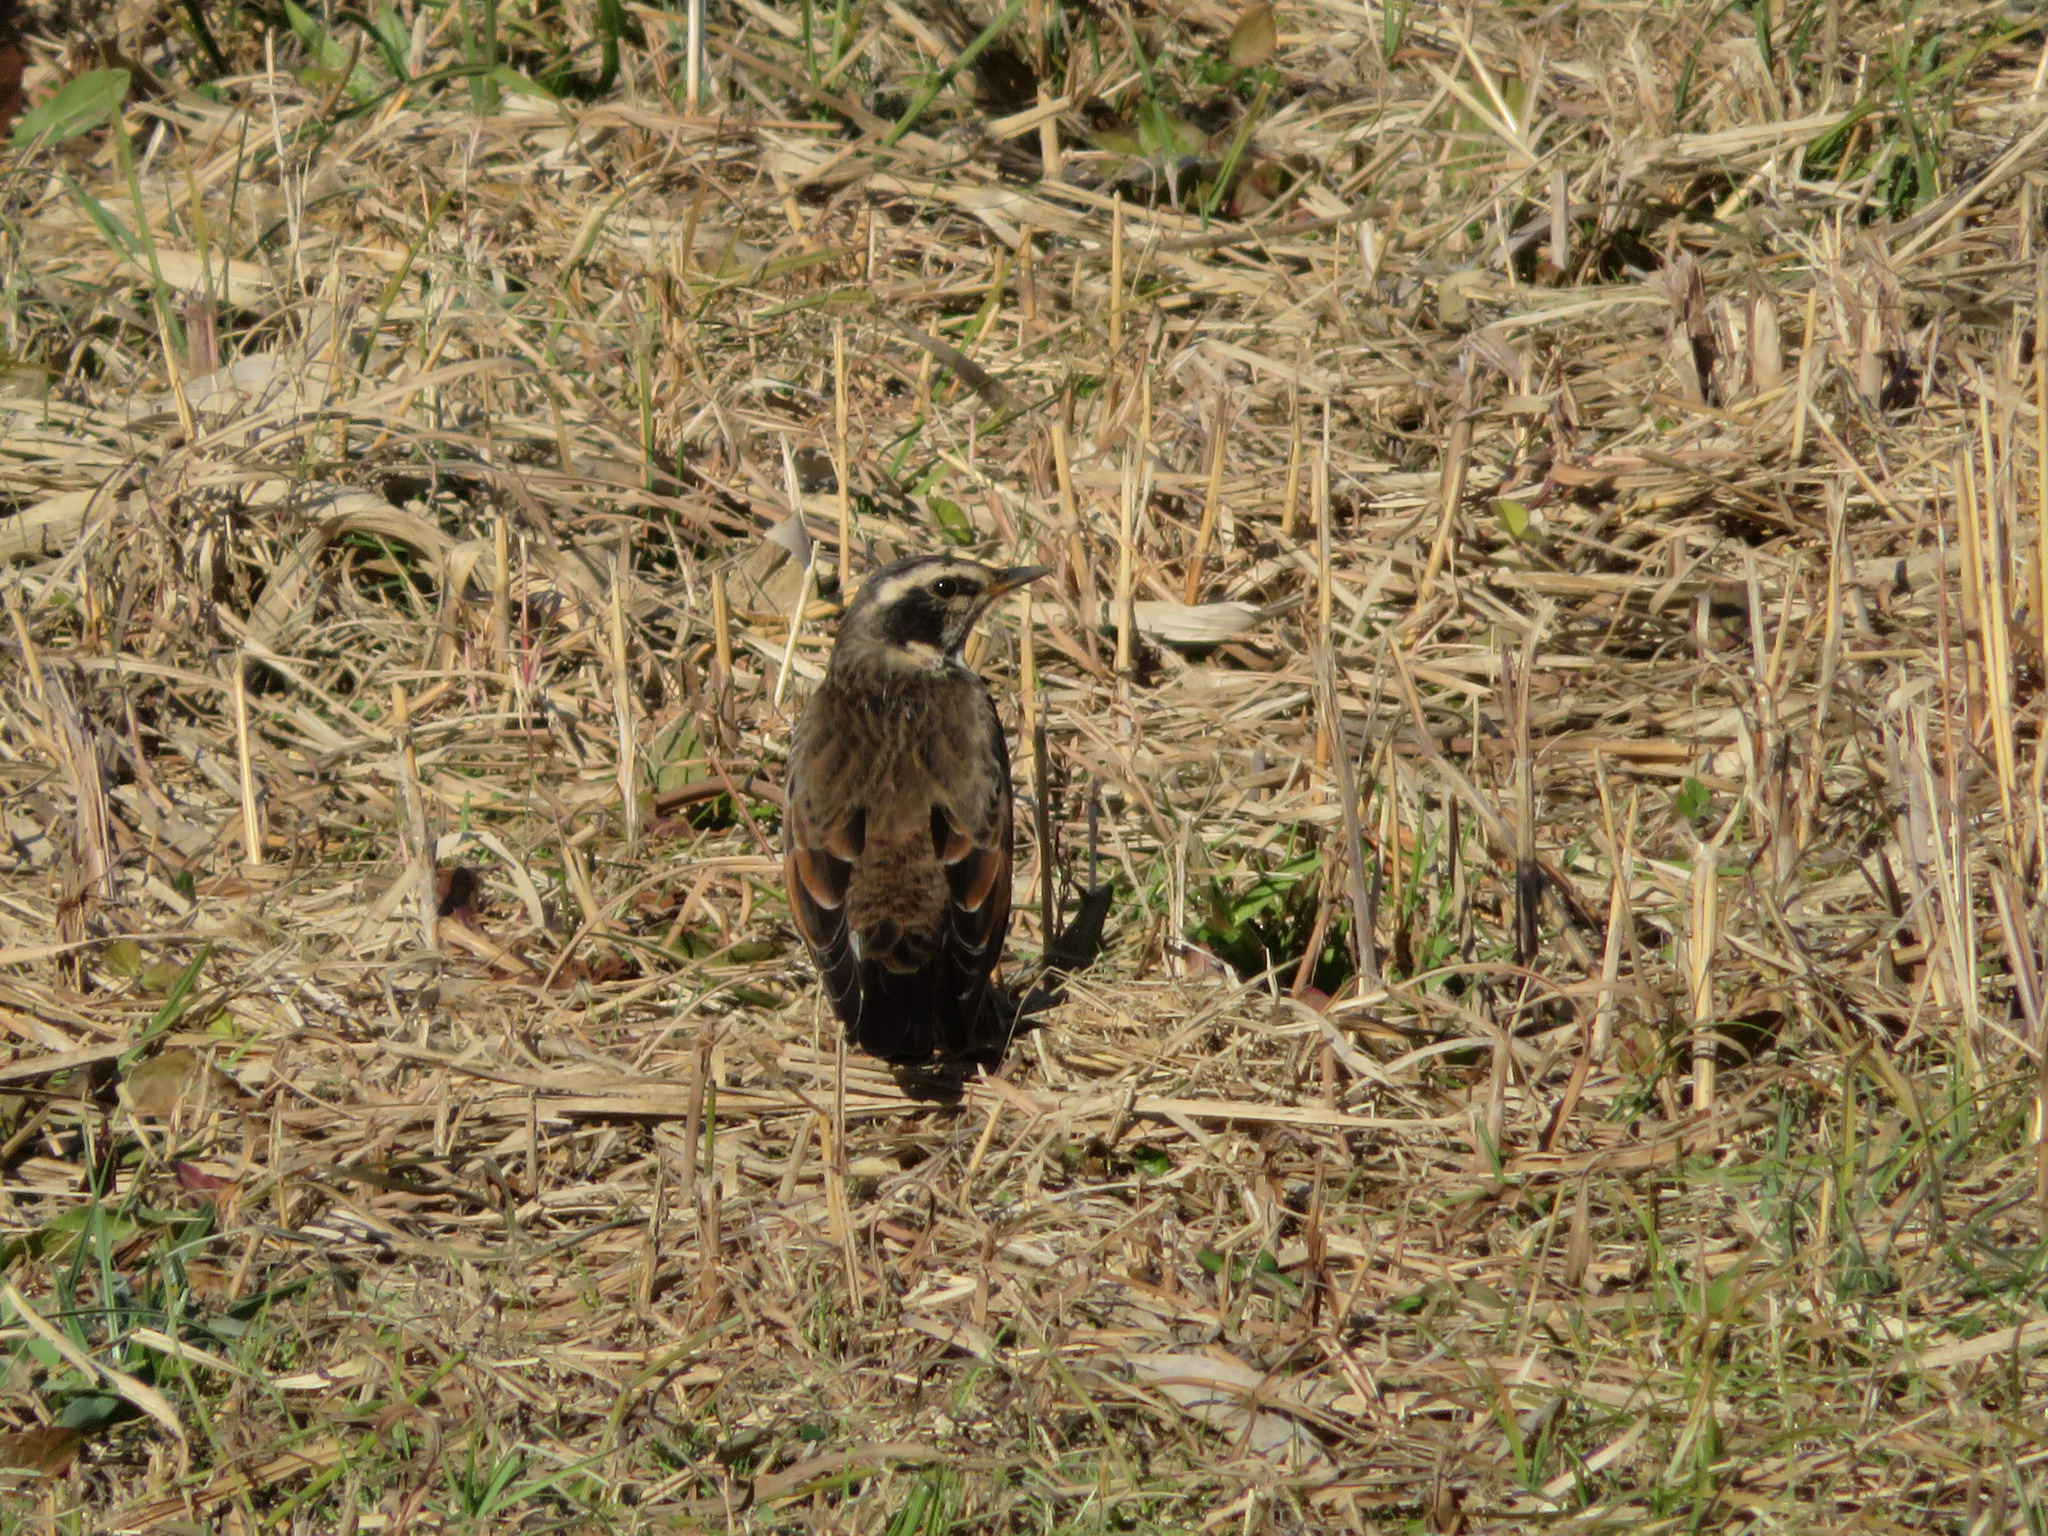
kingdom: Animalia
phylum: Chordata
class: Aves
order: Passeriformes
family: Turdidae
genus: Turdus
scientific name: Turdus eunomus
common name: Dusky thrush
